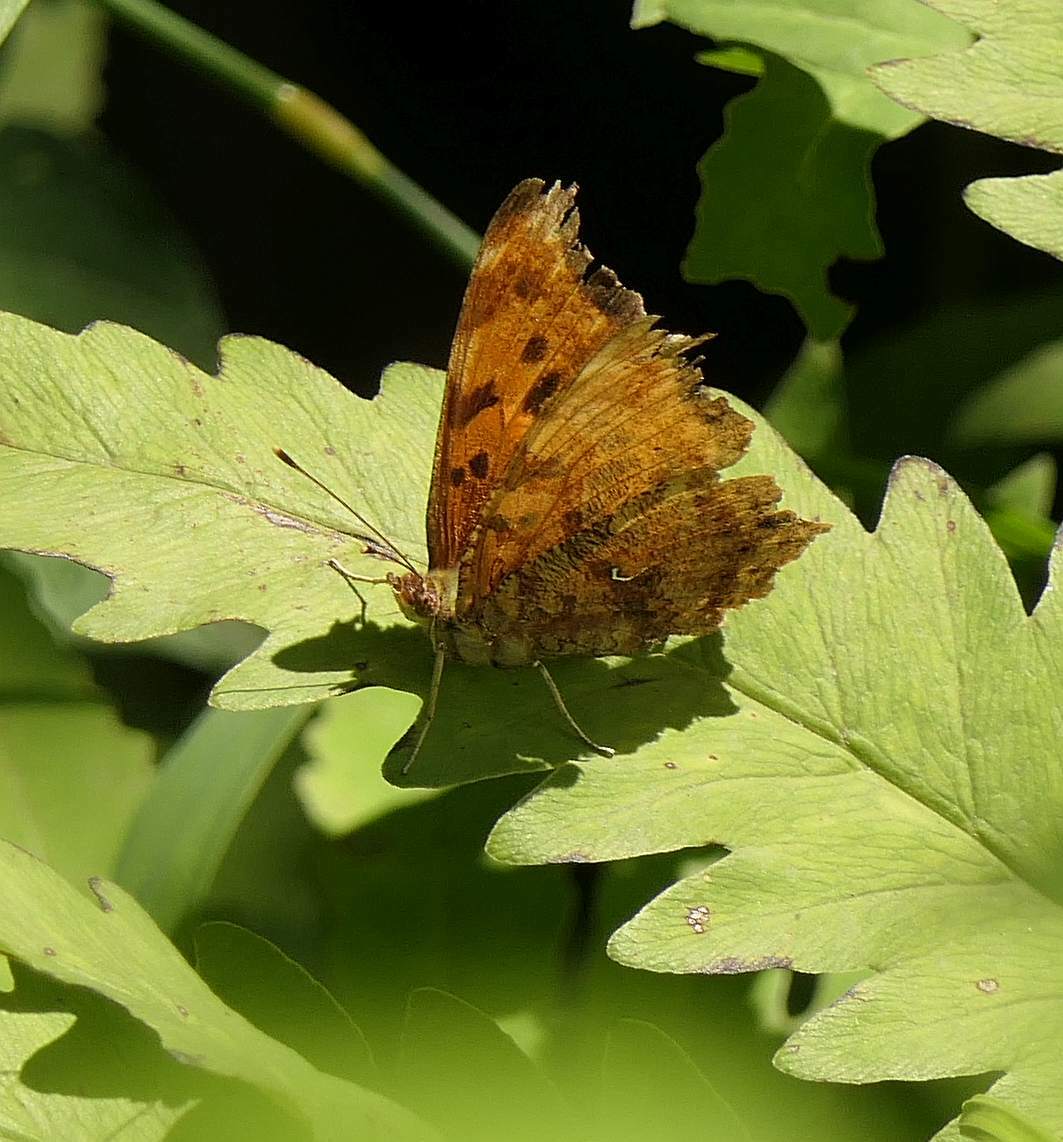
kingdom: Animalia
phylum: Arthropoda
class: Insecta
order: Lepidoptera
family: Nymphalidae
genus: Polygonia
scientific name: Polygonia comma
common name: Eastern comma
